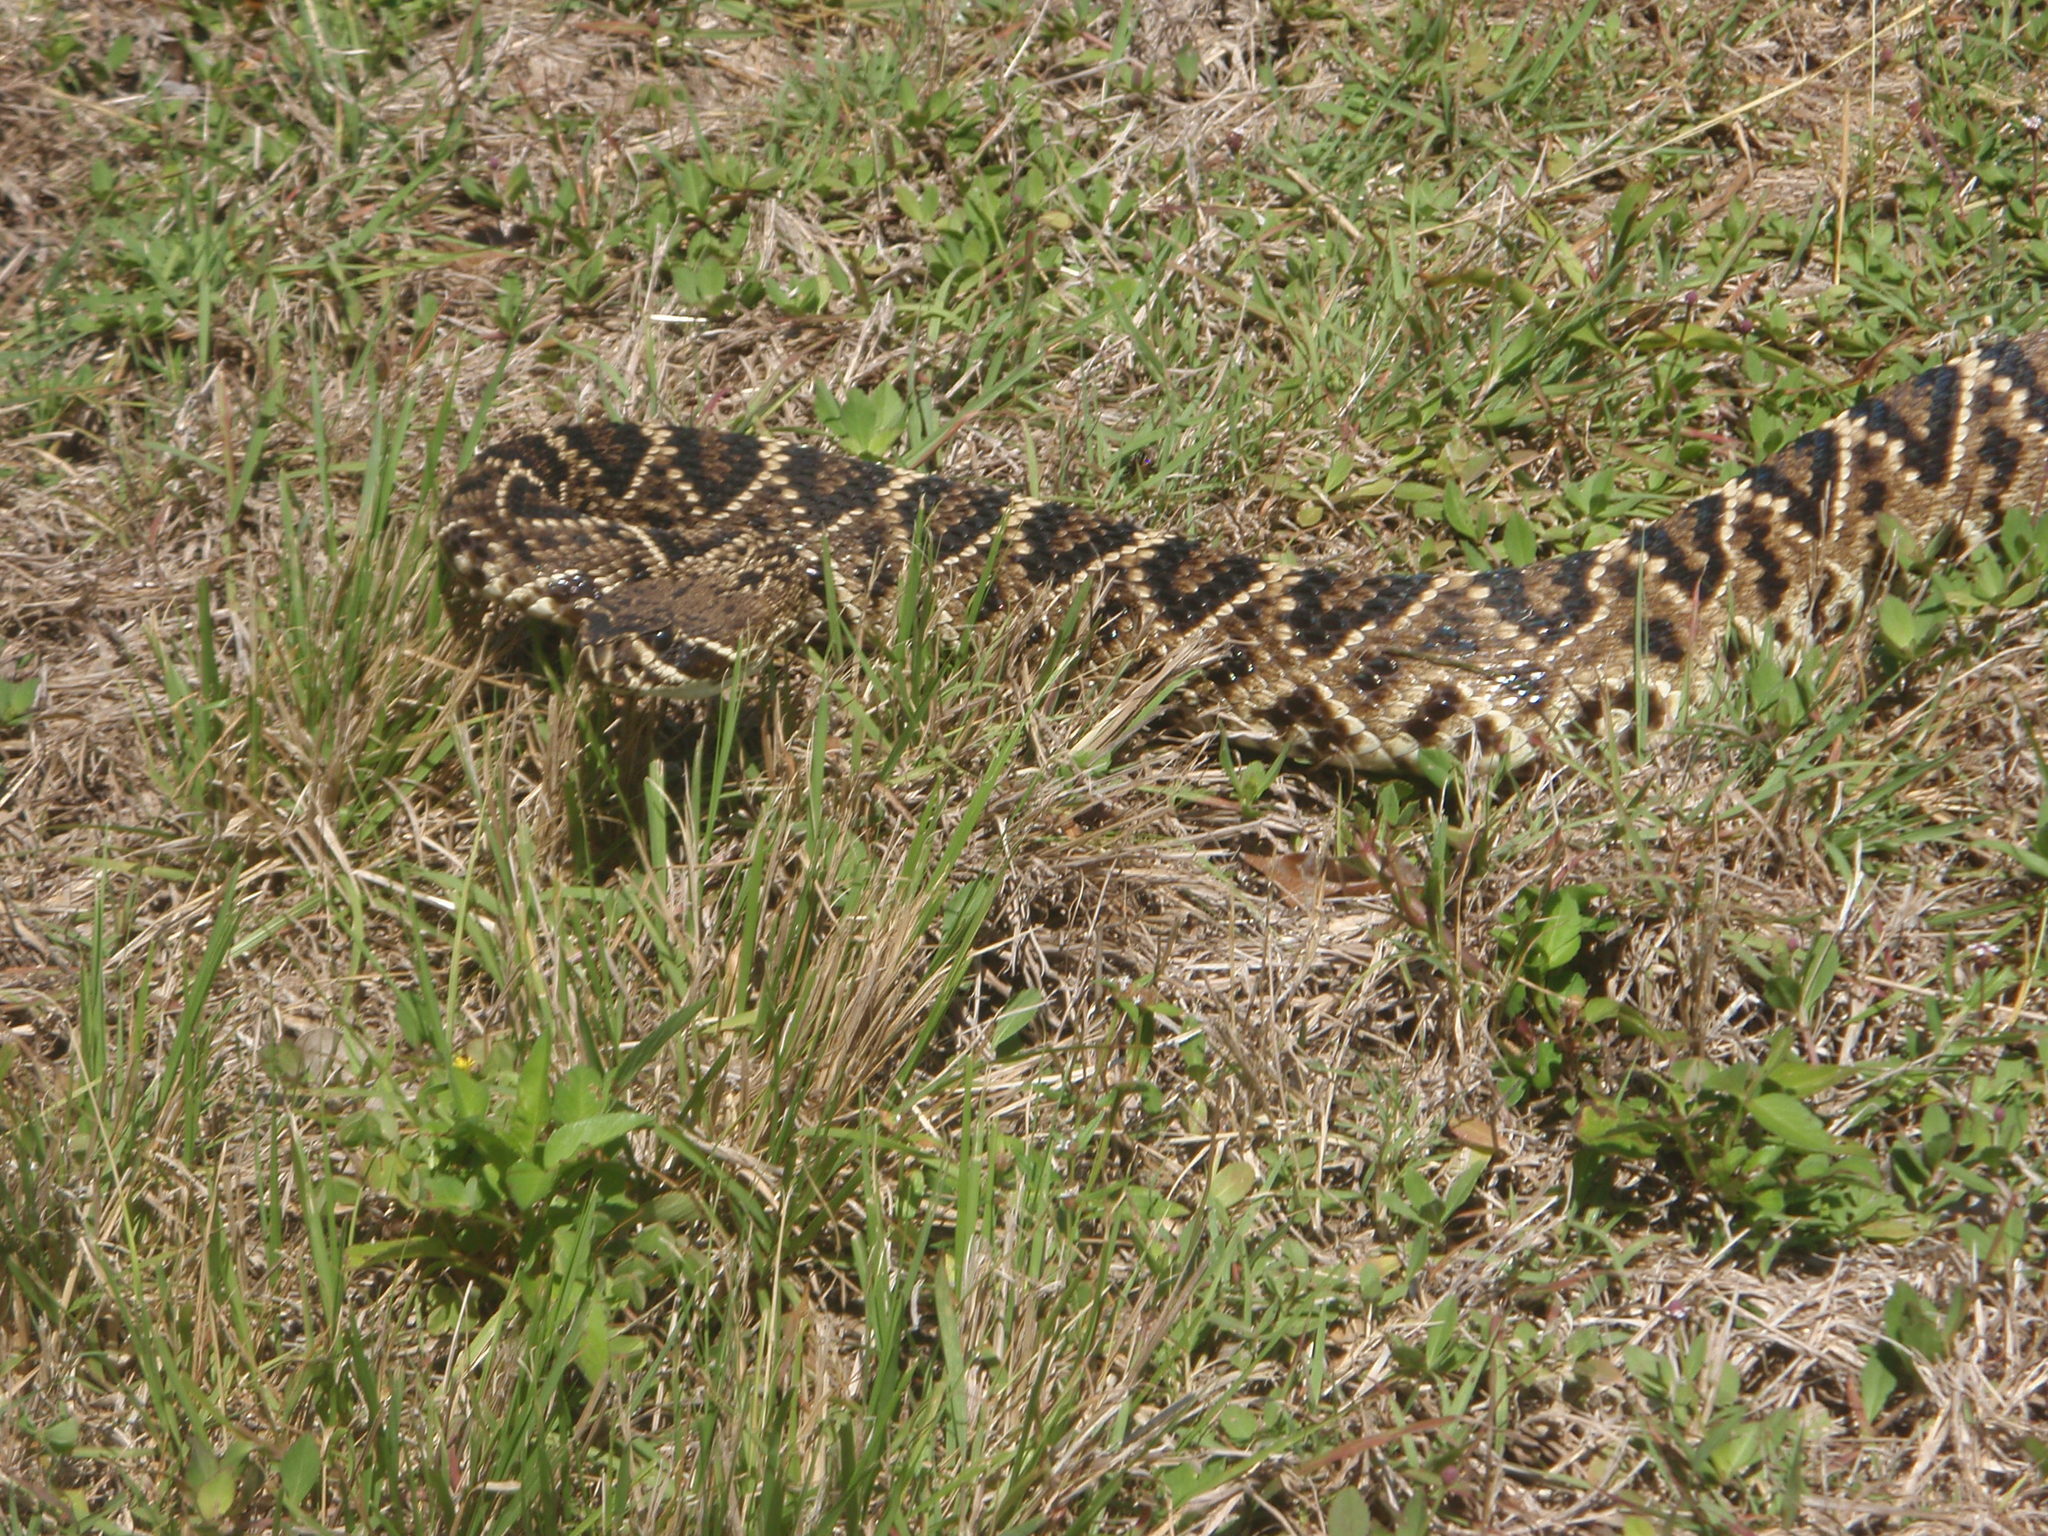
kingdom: Animalia
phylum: Chordata
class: Squamata
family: Viperidae
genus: Crotalus
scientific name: Crotalus adamanteus
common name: Eastern diamondback rattlesnake
